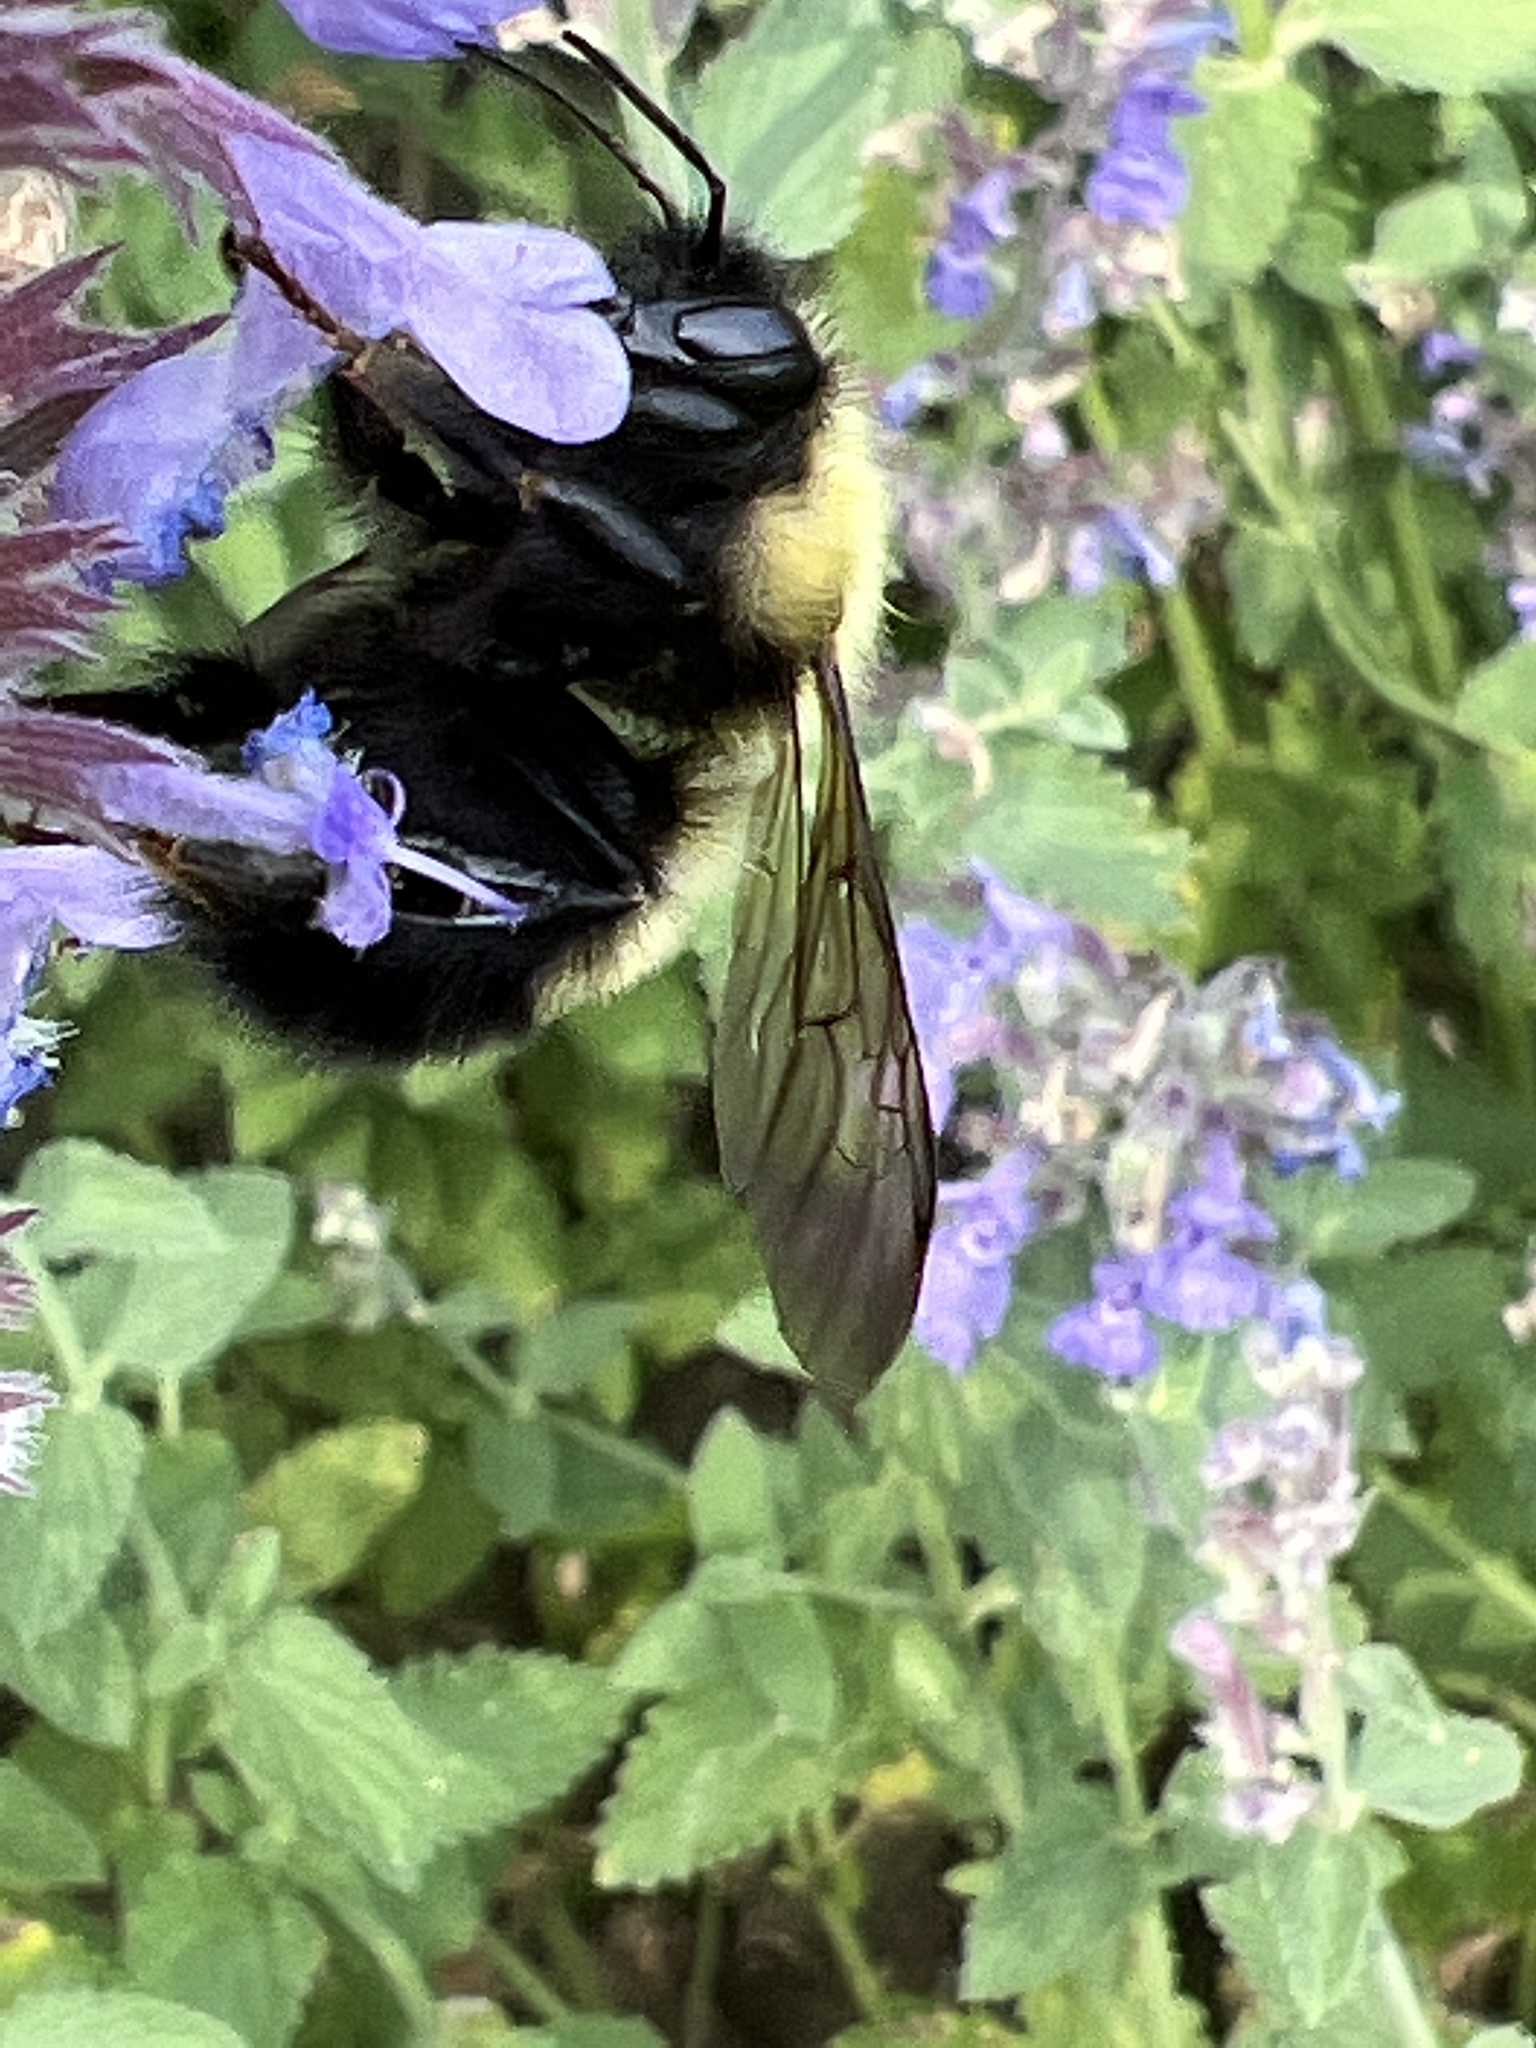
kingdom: Animalia
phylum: Arthropoda
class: Insecta
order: Hymenoptera
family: Apidae
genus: Bombus
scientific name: Bombus perplexus
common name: Confusing bumble bee
